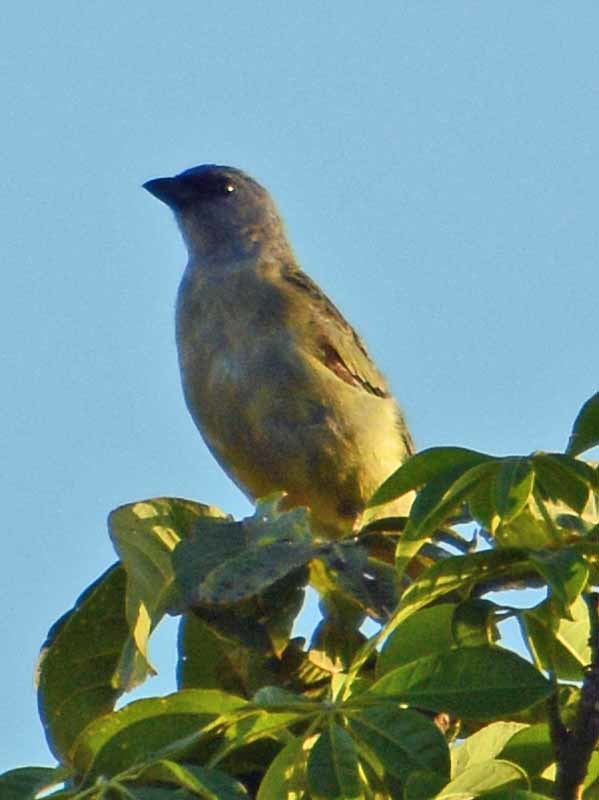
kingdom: Animalia
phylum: Chordata
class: Aves
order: Passeriformes
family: Thraupidae
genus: Thraupis
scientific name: Thraupis abbas
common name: Yellow-winged tanager
